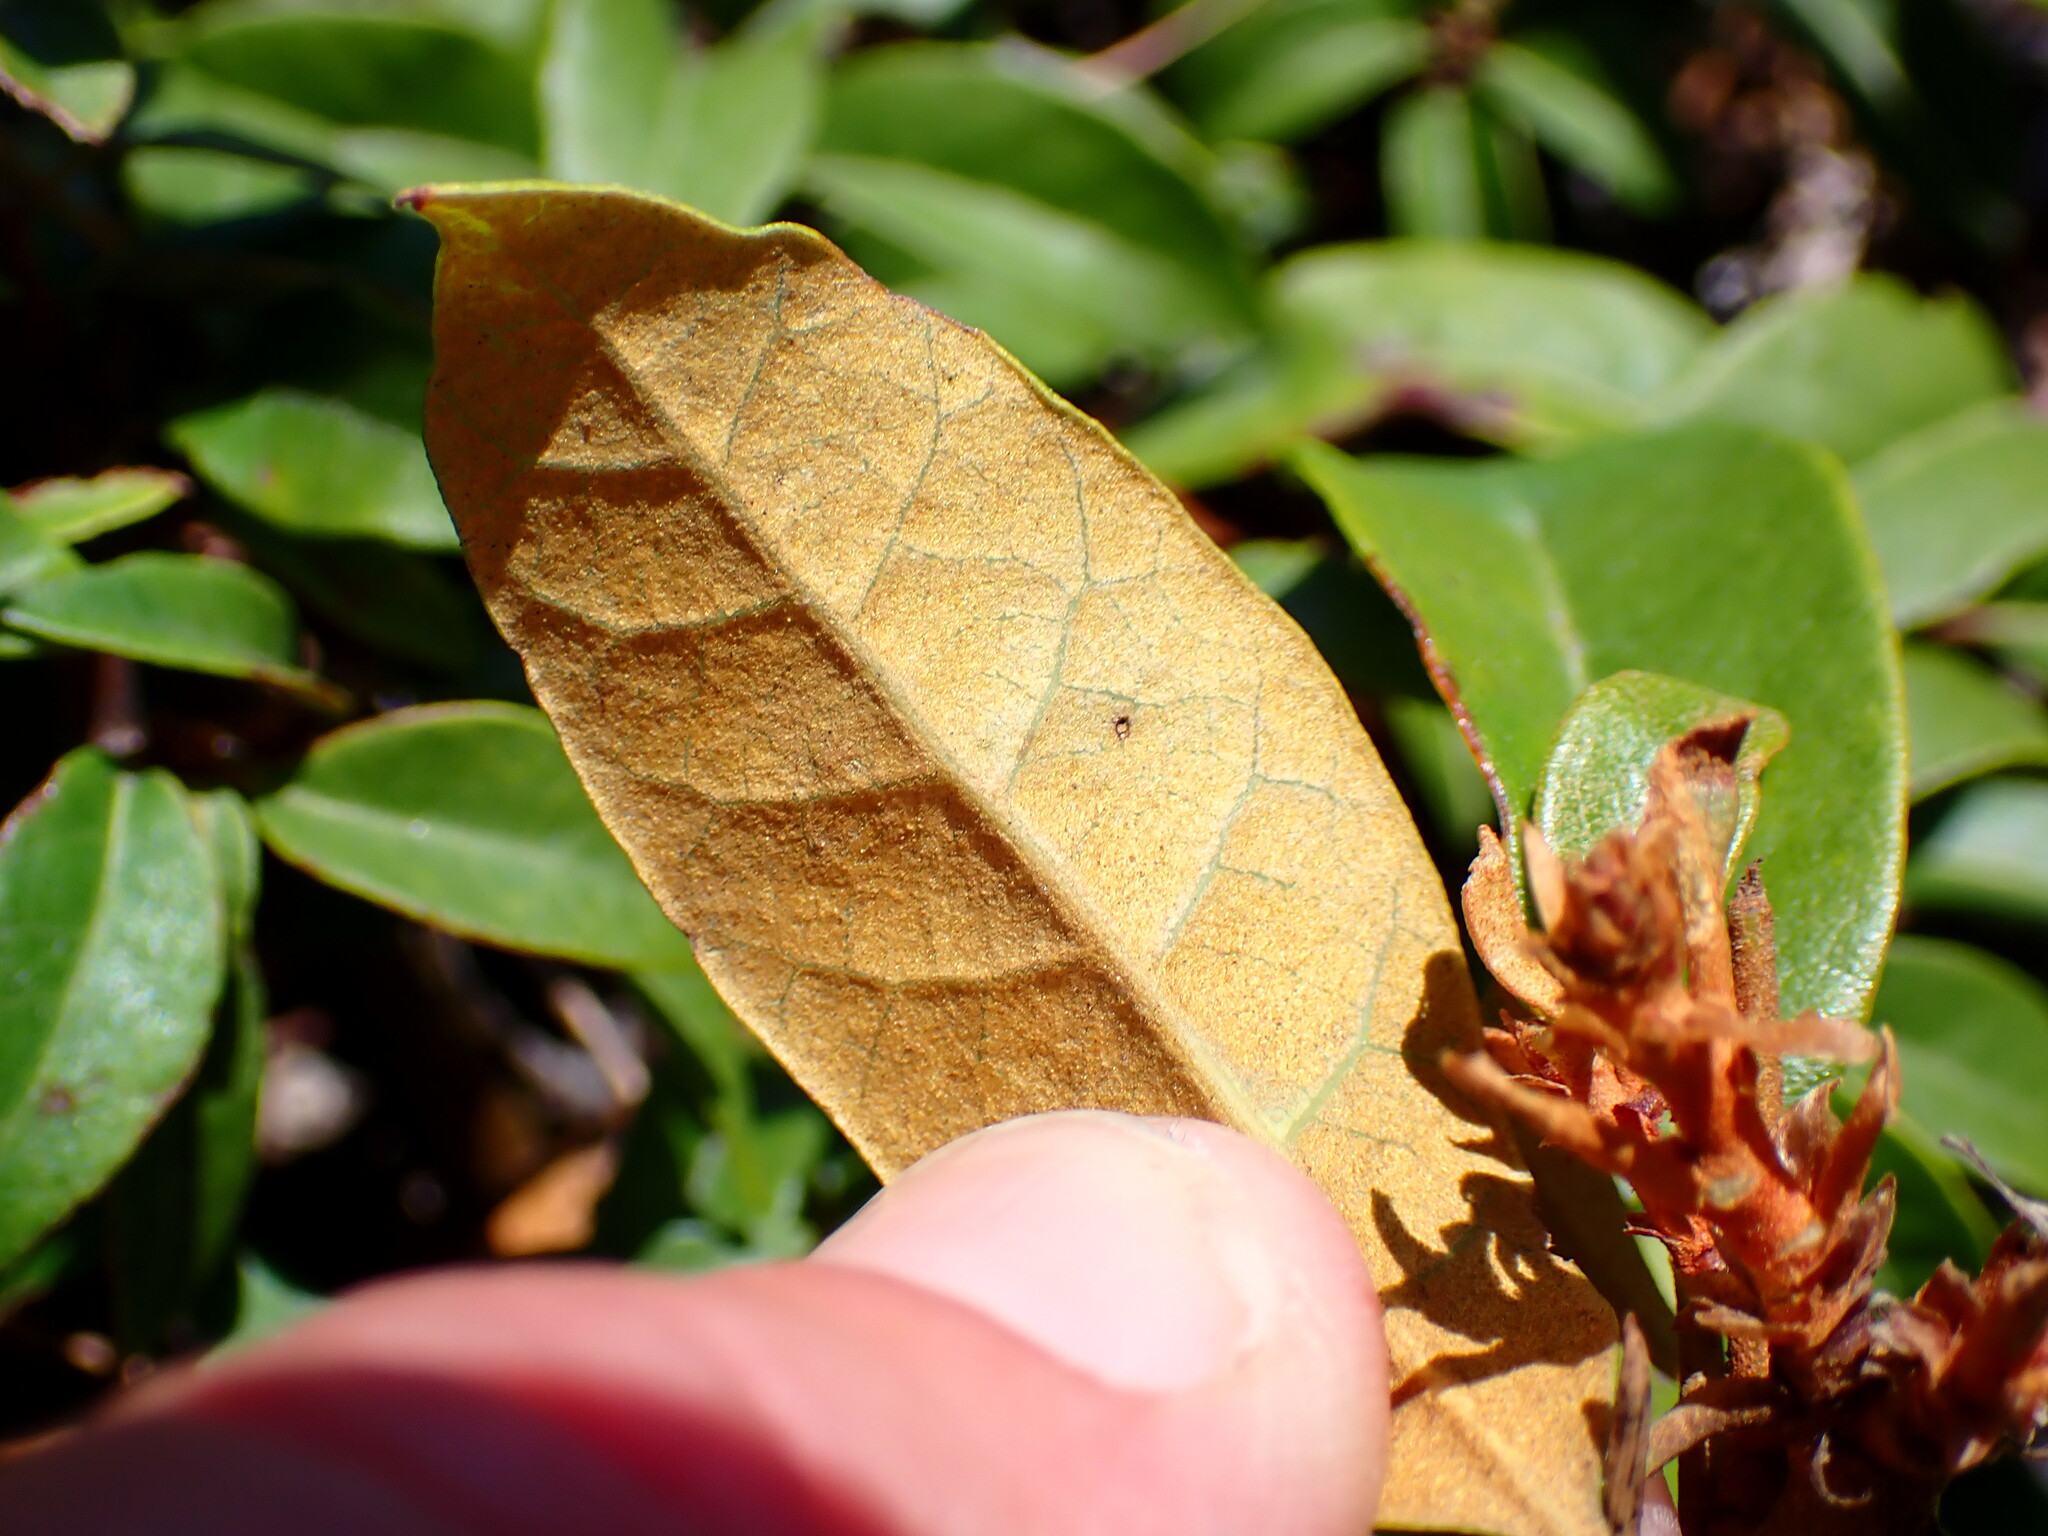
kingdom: Plantae
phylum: Tracheophyta
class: Magnoliopsida
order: Fagales
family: Fagaceae
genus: Chrysolepis
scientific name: Chrysolepis chrysophylla
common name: Giant chinquapin
